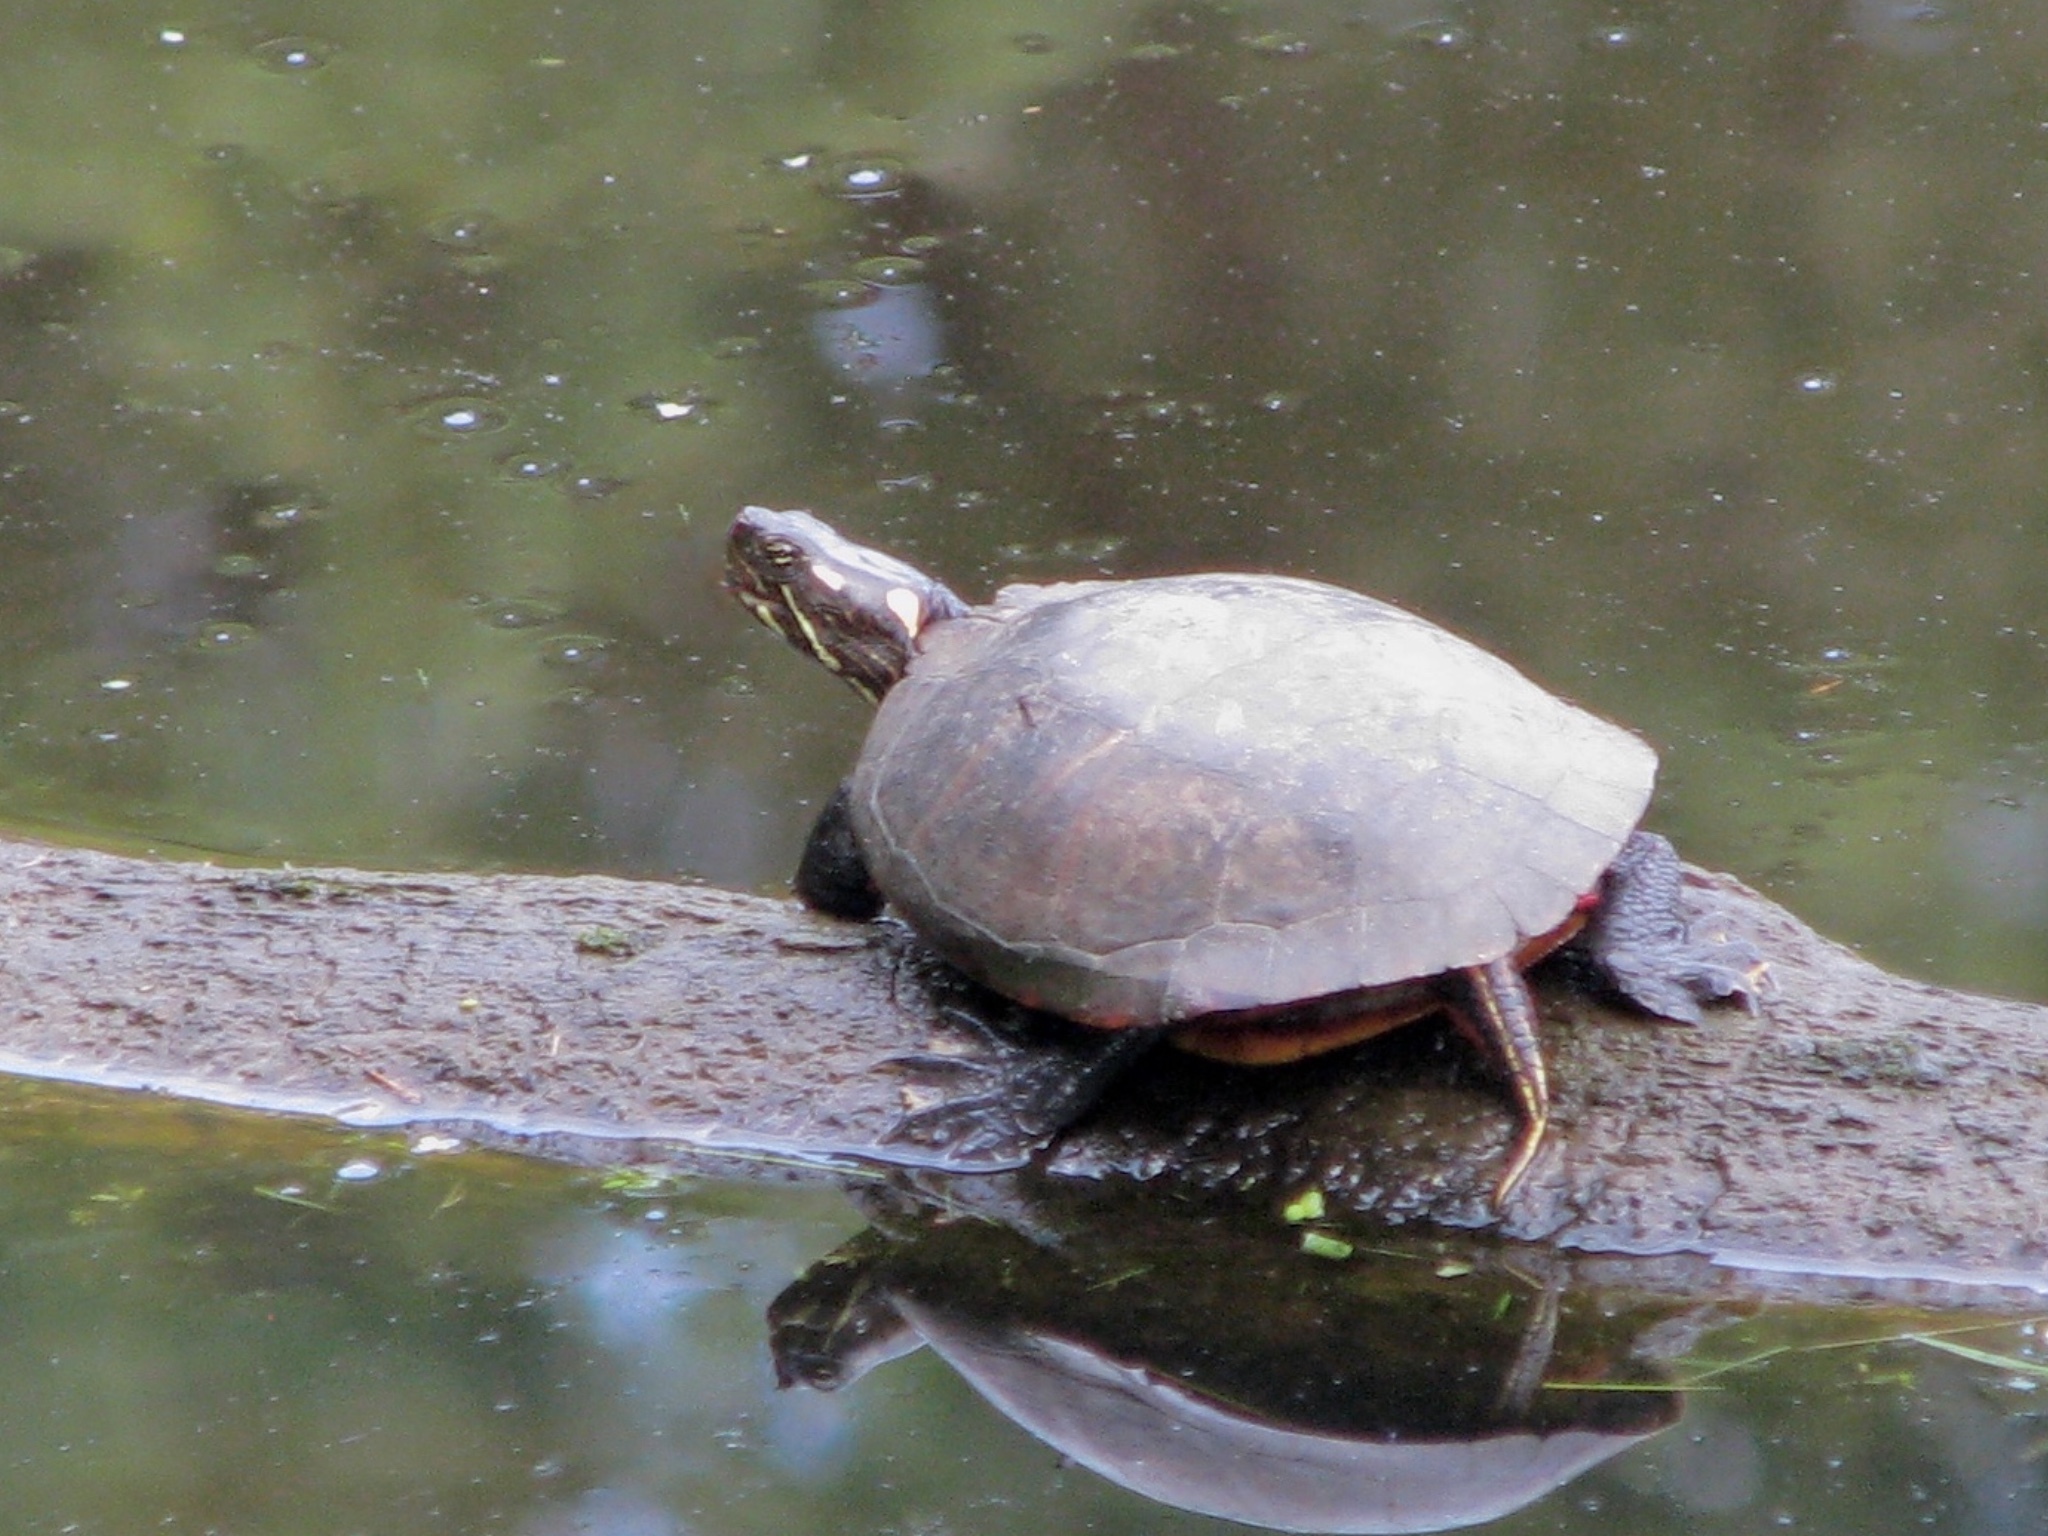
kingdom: Animalia
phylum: Chordata
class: Testudines
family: Emydidae
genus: Chrysemys
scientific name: Chrysemys picta
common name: Painted turtle
